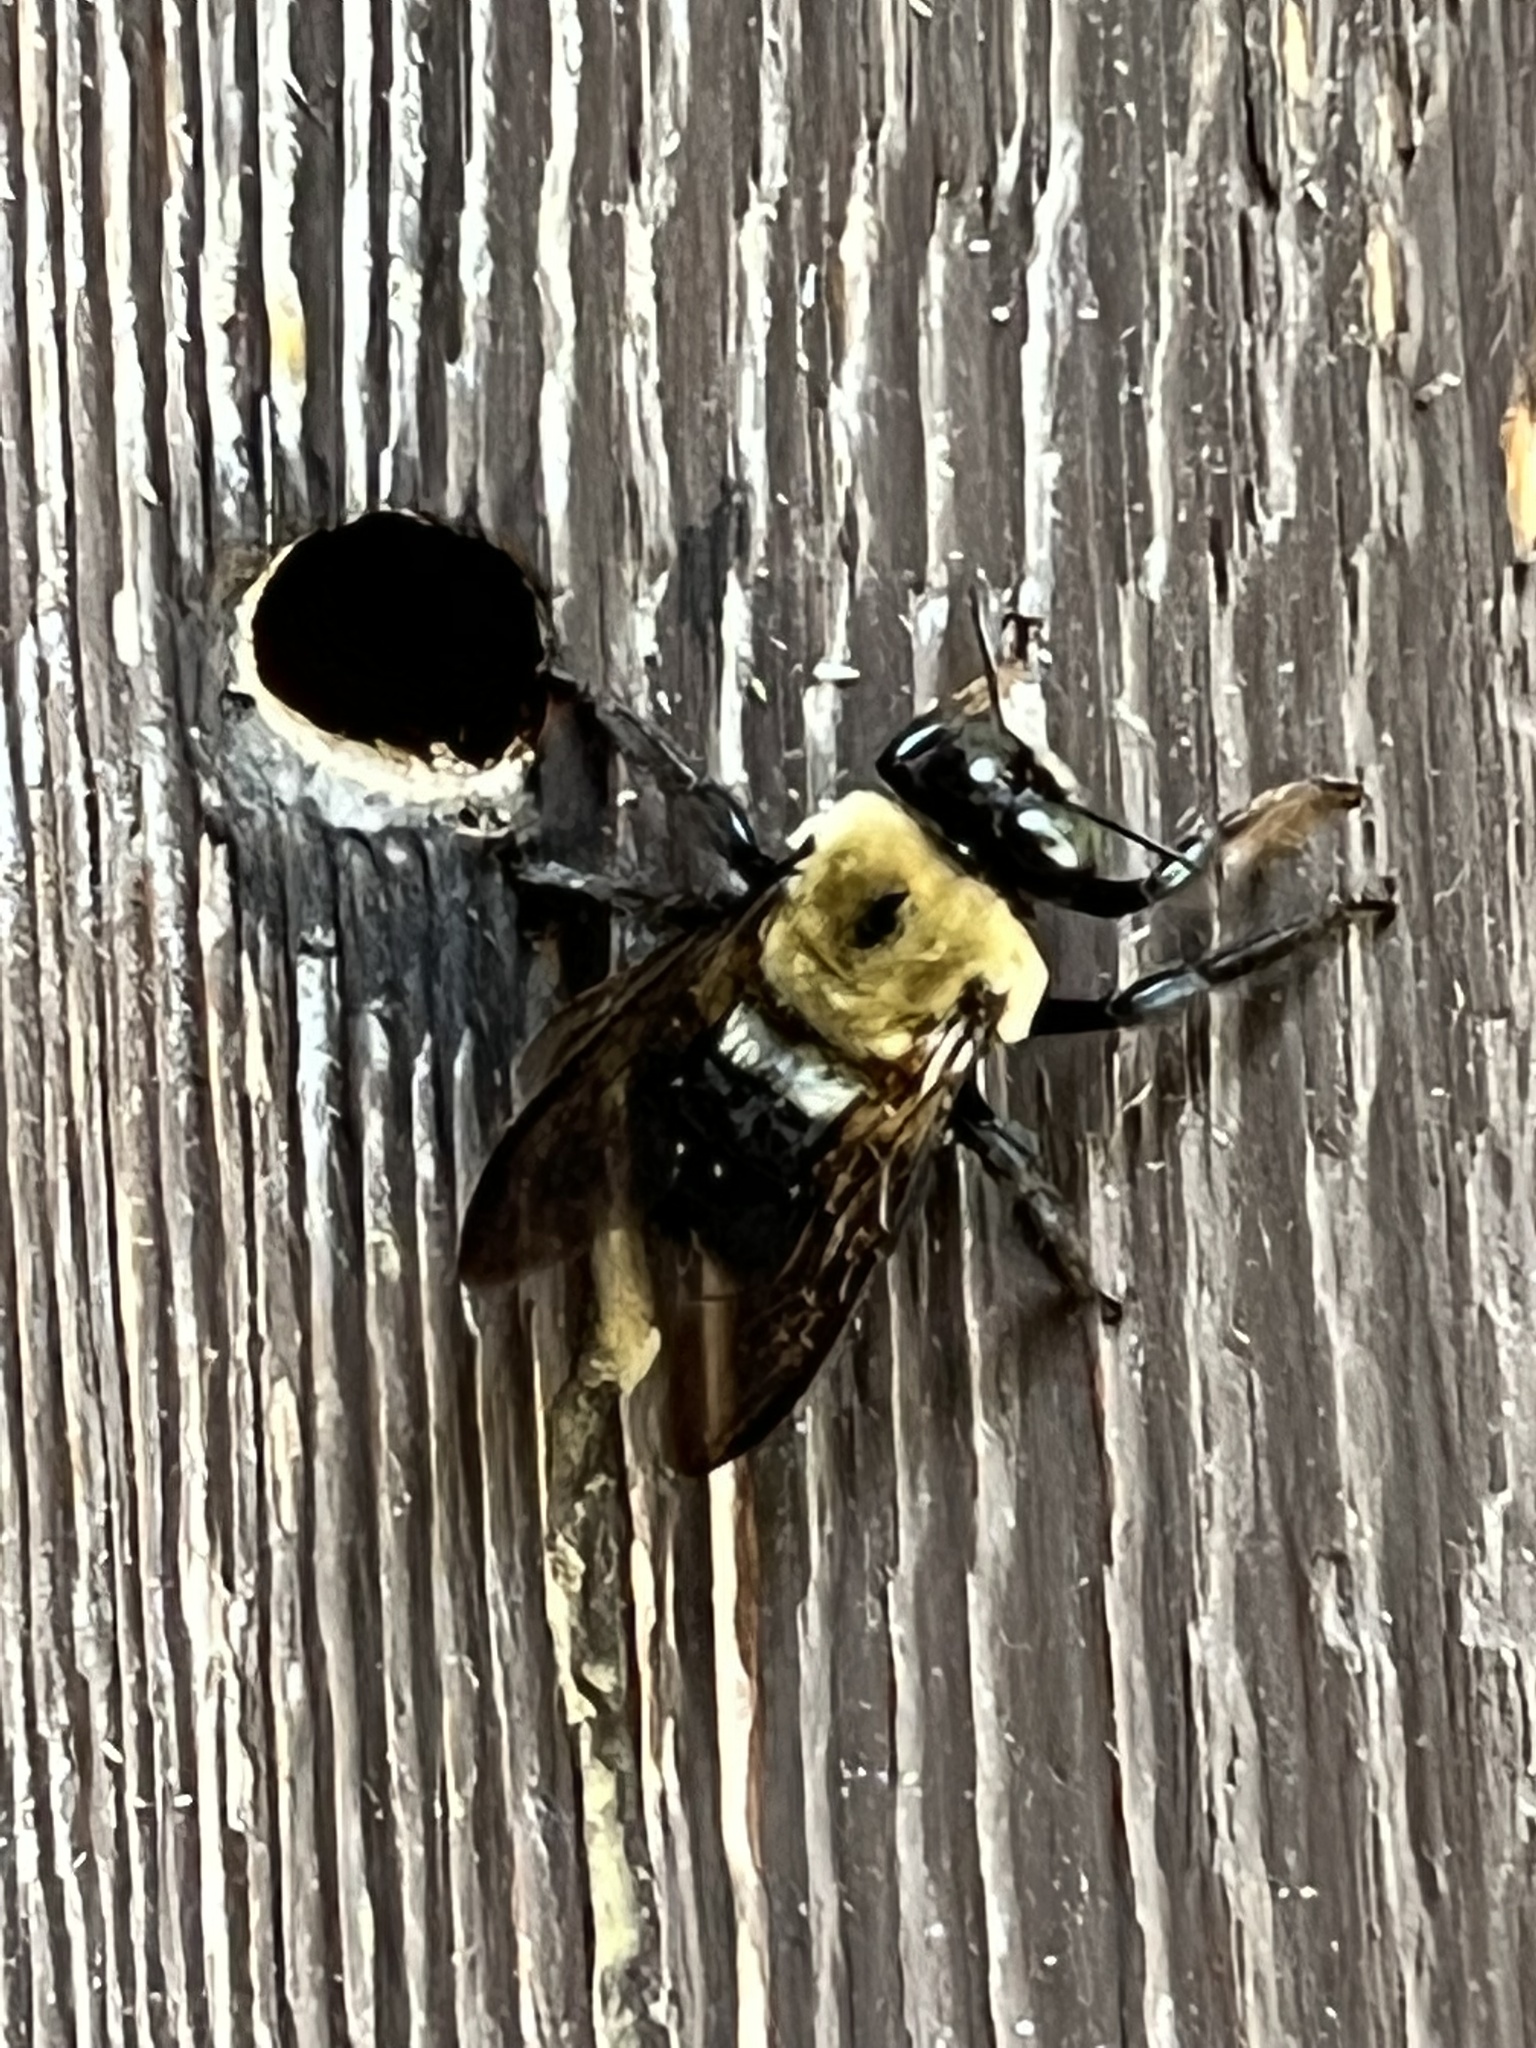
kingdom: Animalia
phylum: Arthropoda
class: Insecta
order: Hymenoptera
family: Apidae
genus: Xylocopa
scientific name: Xylocopa virginica
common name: Carpenter bee
